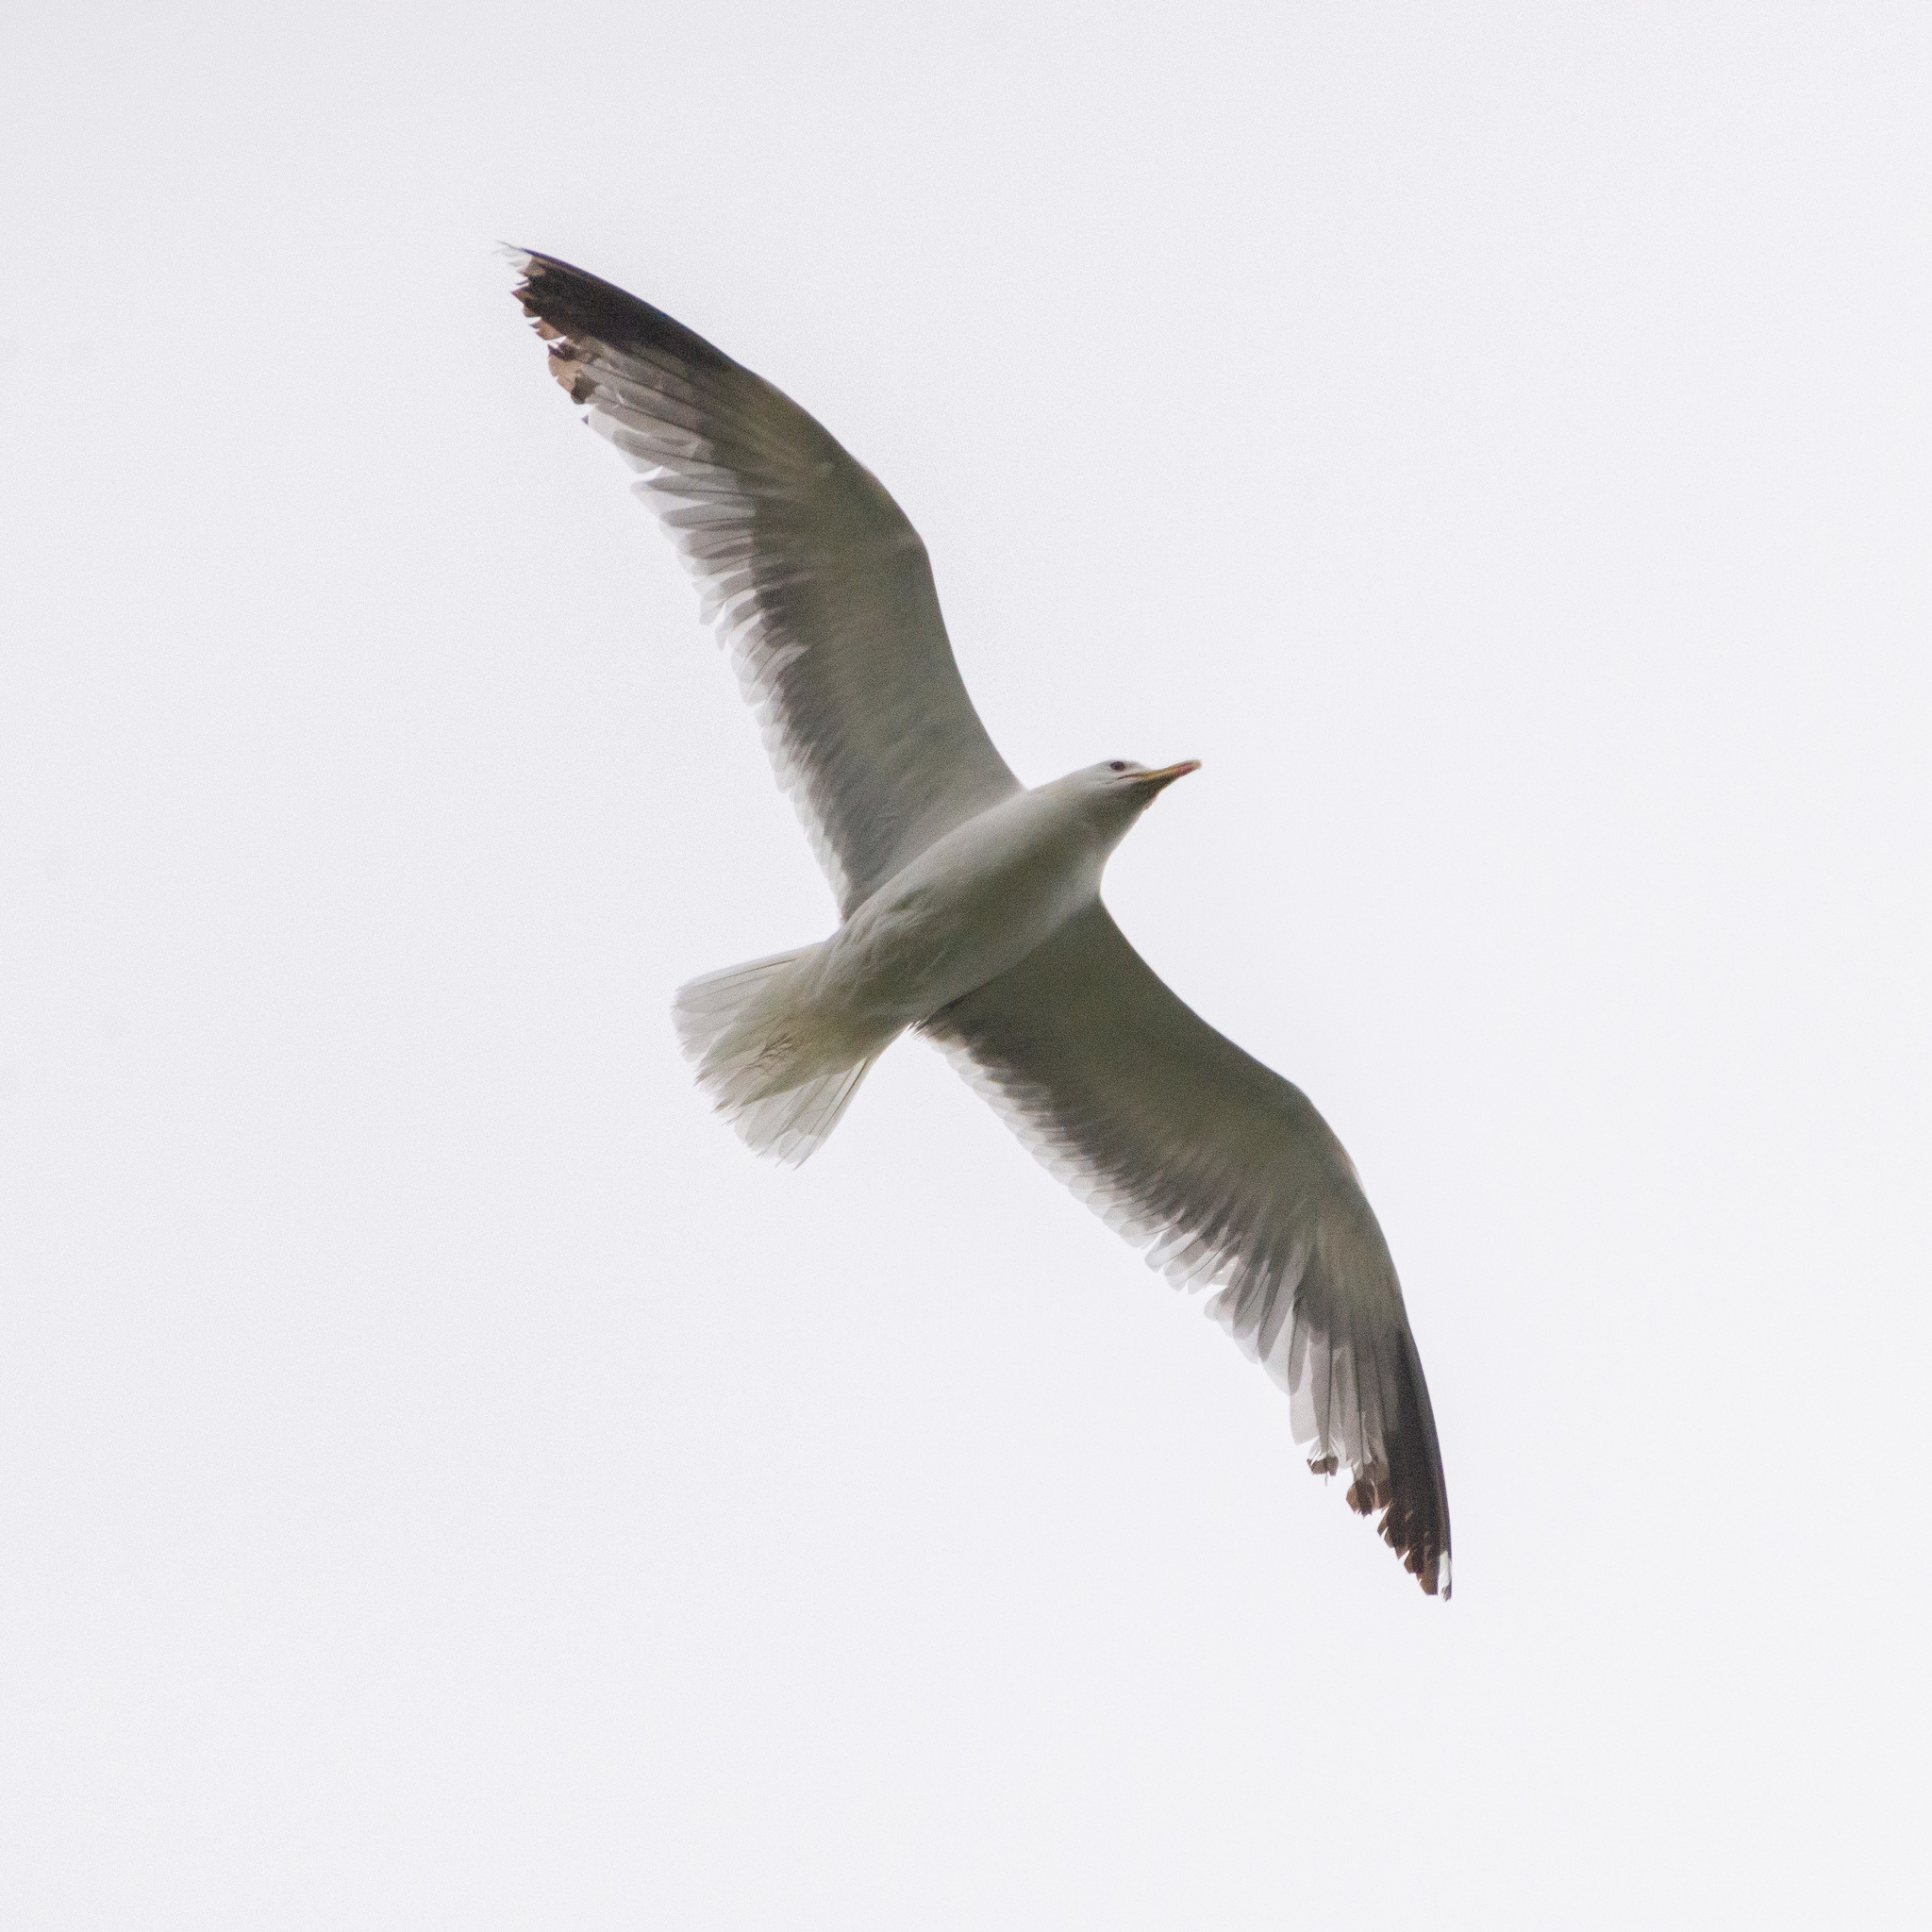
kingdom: Animalia
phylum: Chordata
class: Aves
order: Charadriiformes
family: Laridae
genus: Larus
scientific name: Larus michahellis
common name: Yellow-legged gull
